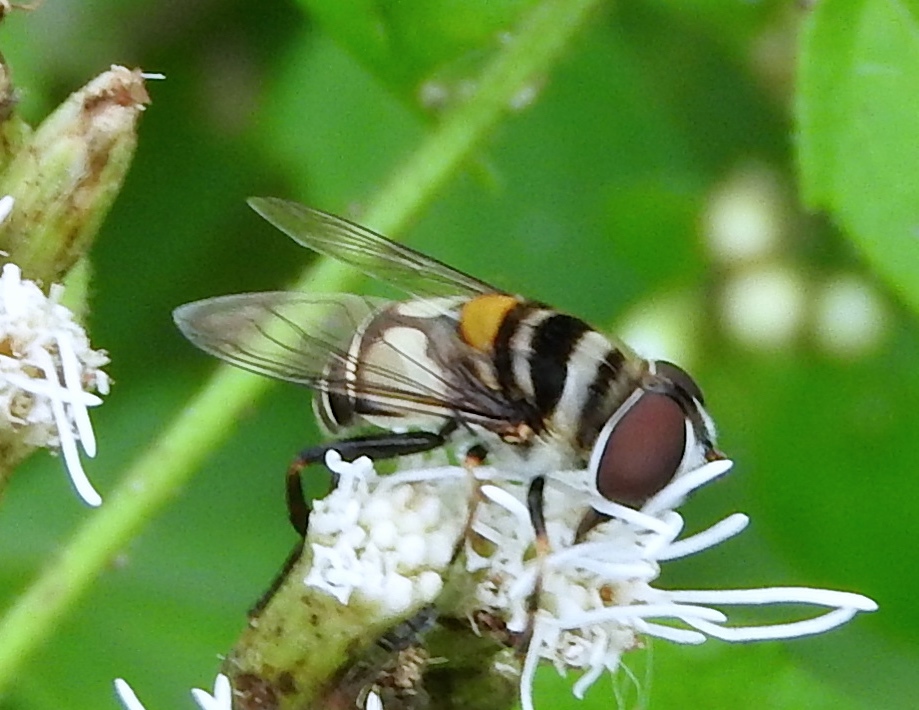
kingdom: Animalia
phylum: Arthropoda
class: Insecta
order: Diptera
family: Syrphidae
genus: Palpada
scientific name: Palpada
